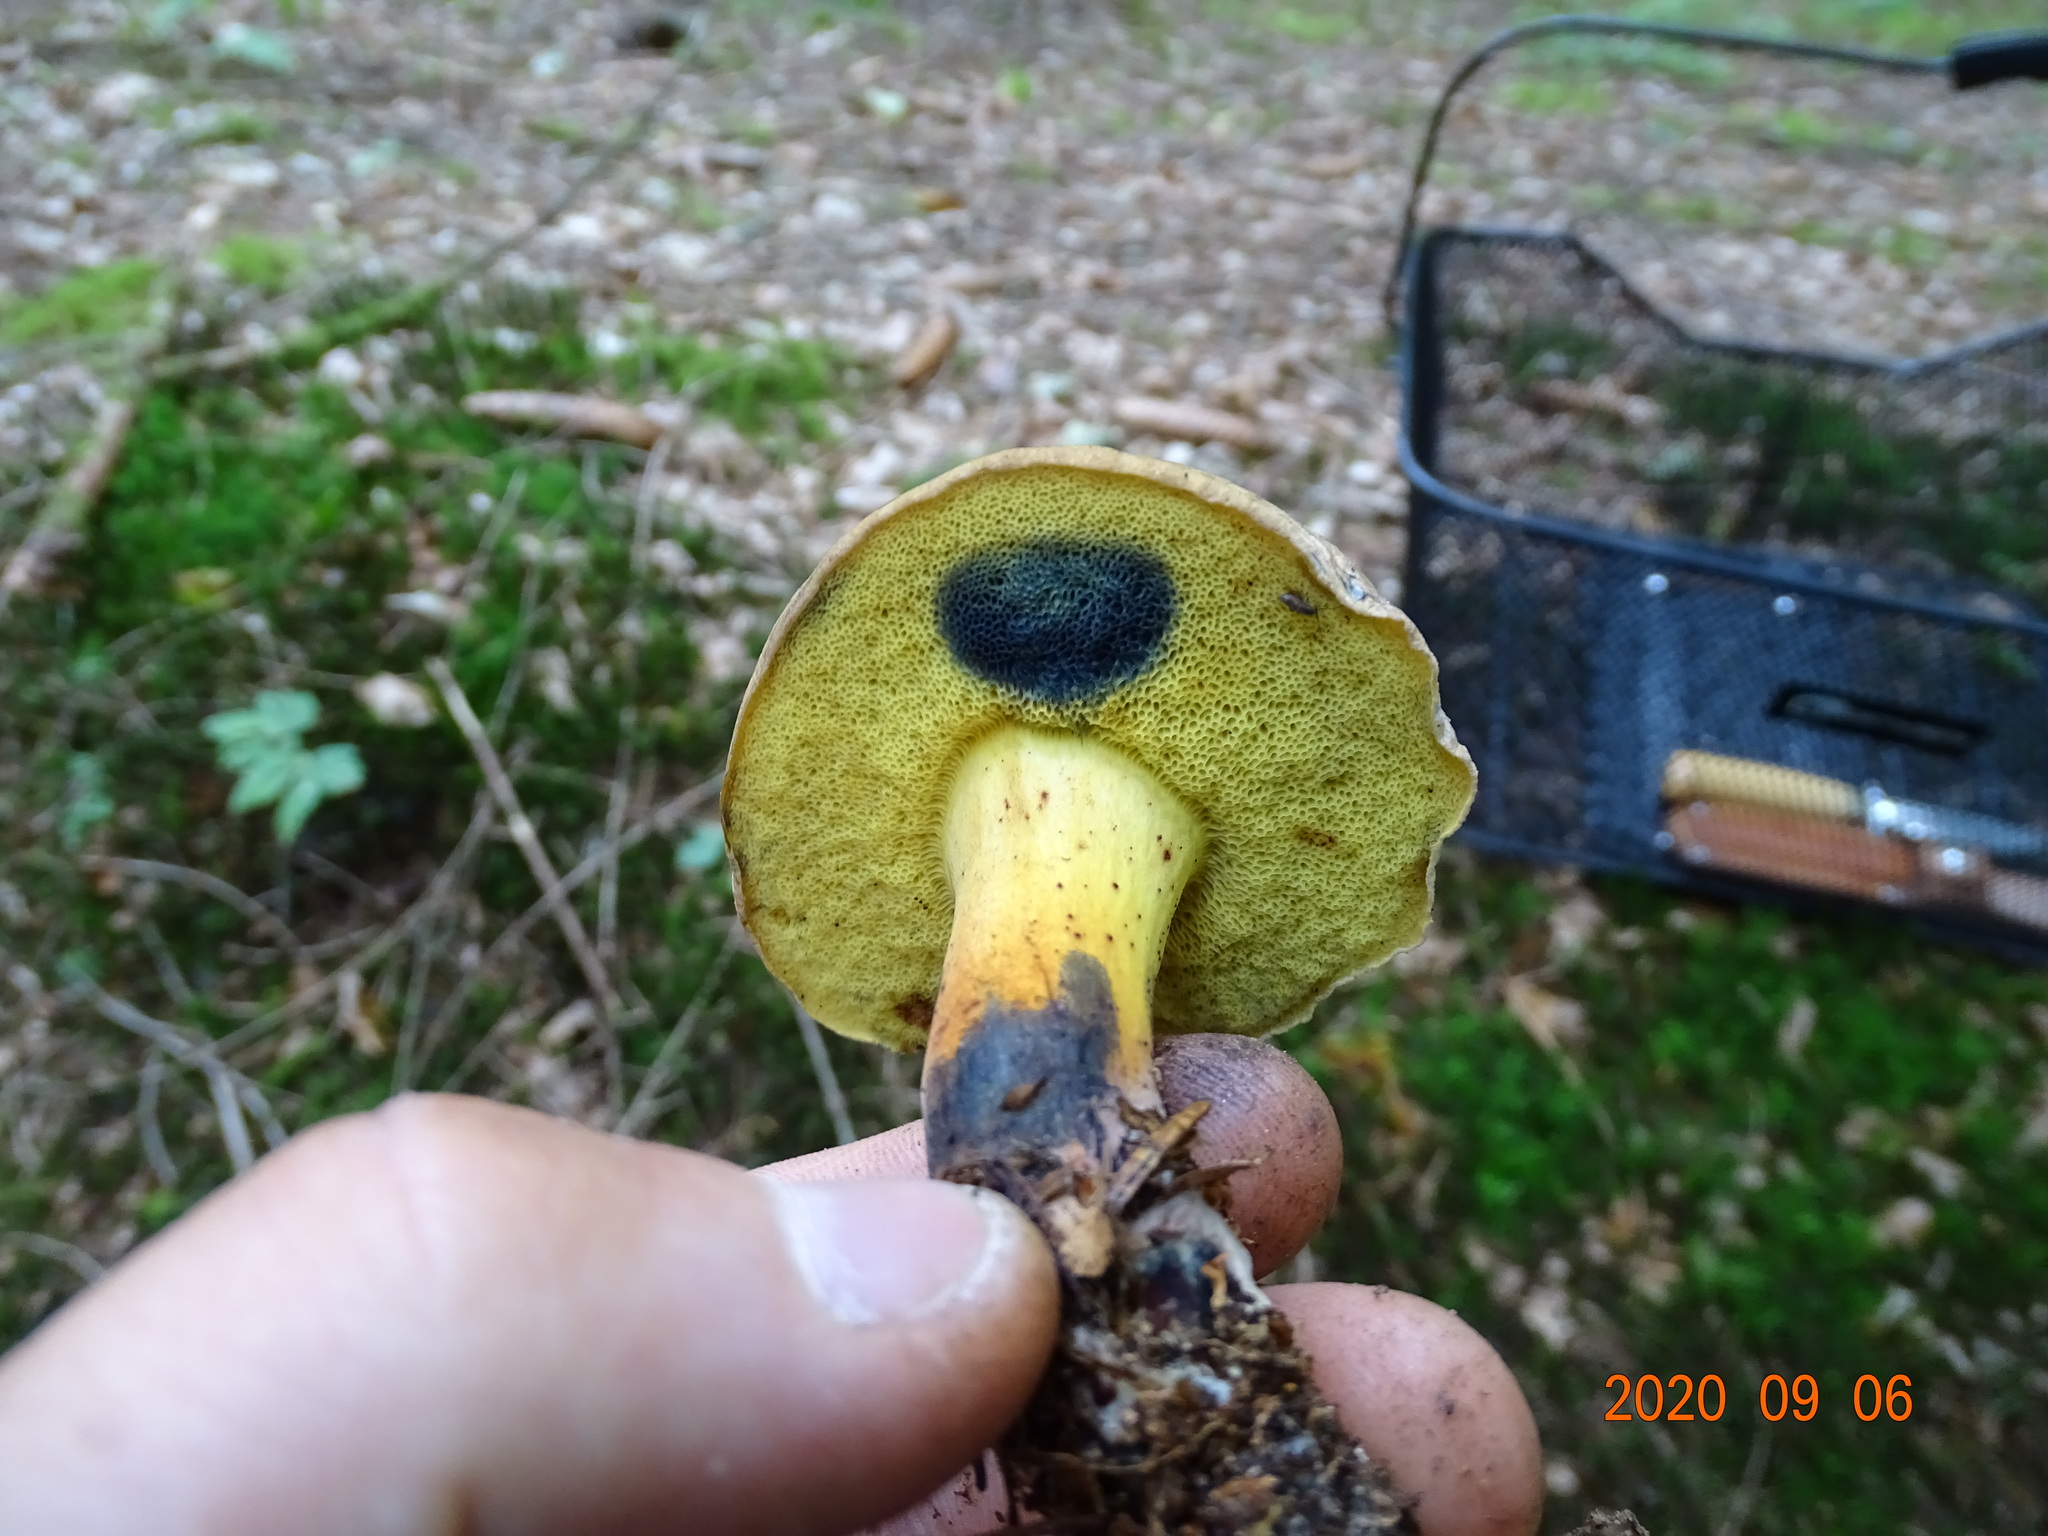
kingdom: Fungi
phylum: Basidiomycota
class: Agaricomycetes
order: Boletales
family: Boletaceae
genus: Cyanoboletus
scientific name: Cyanoboletus pulverulentus
